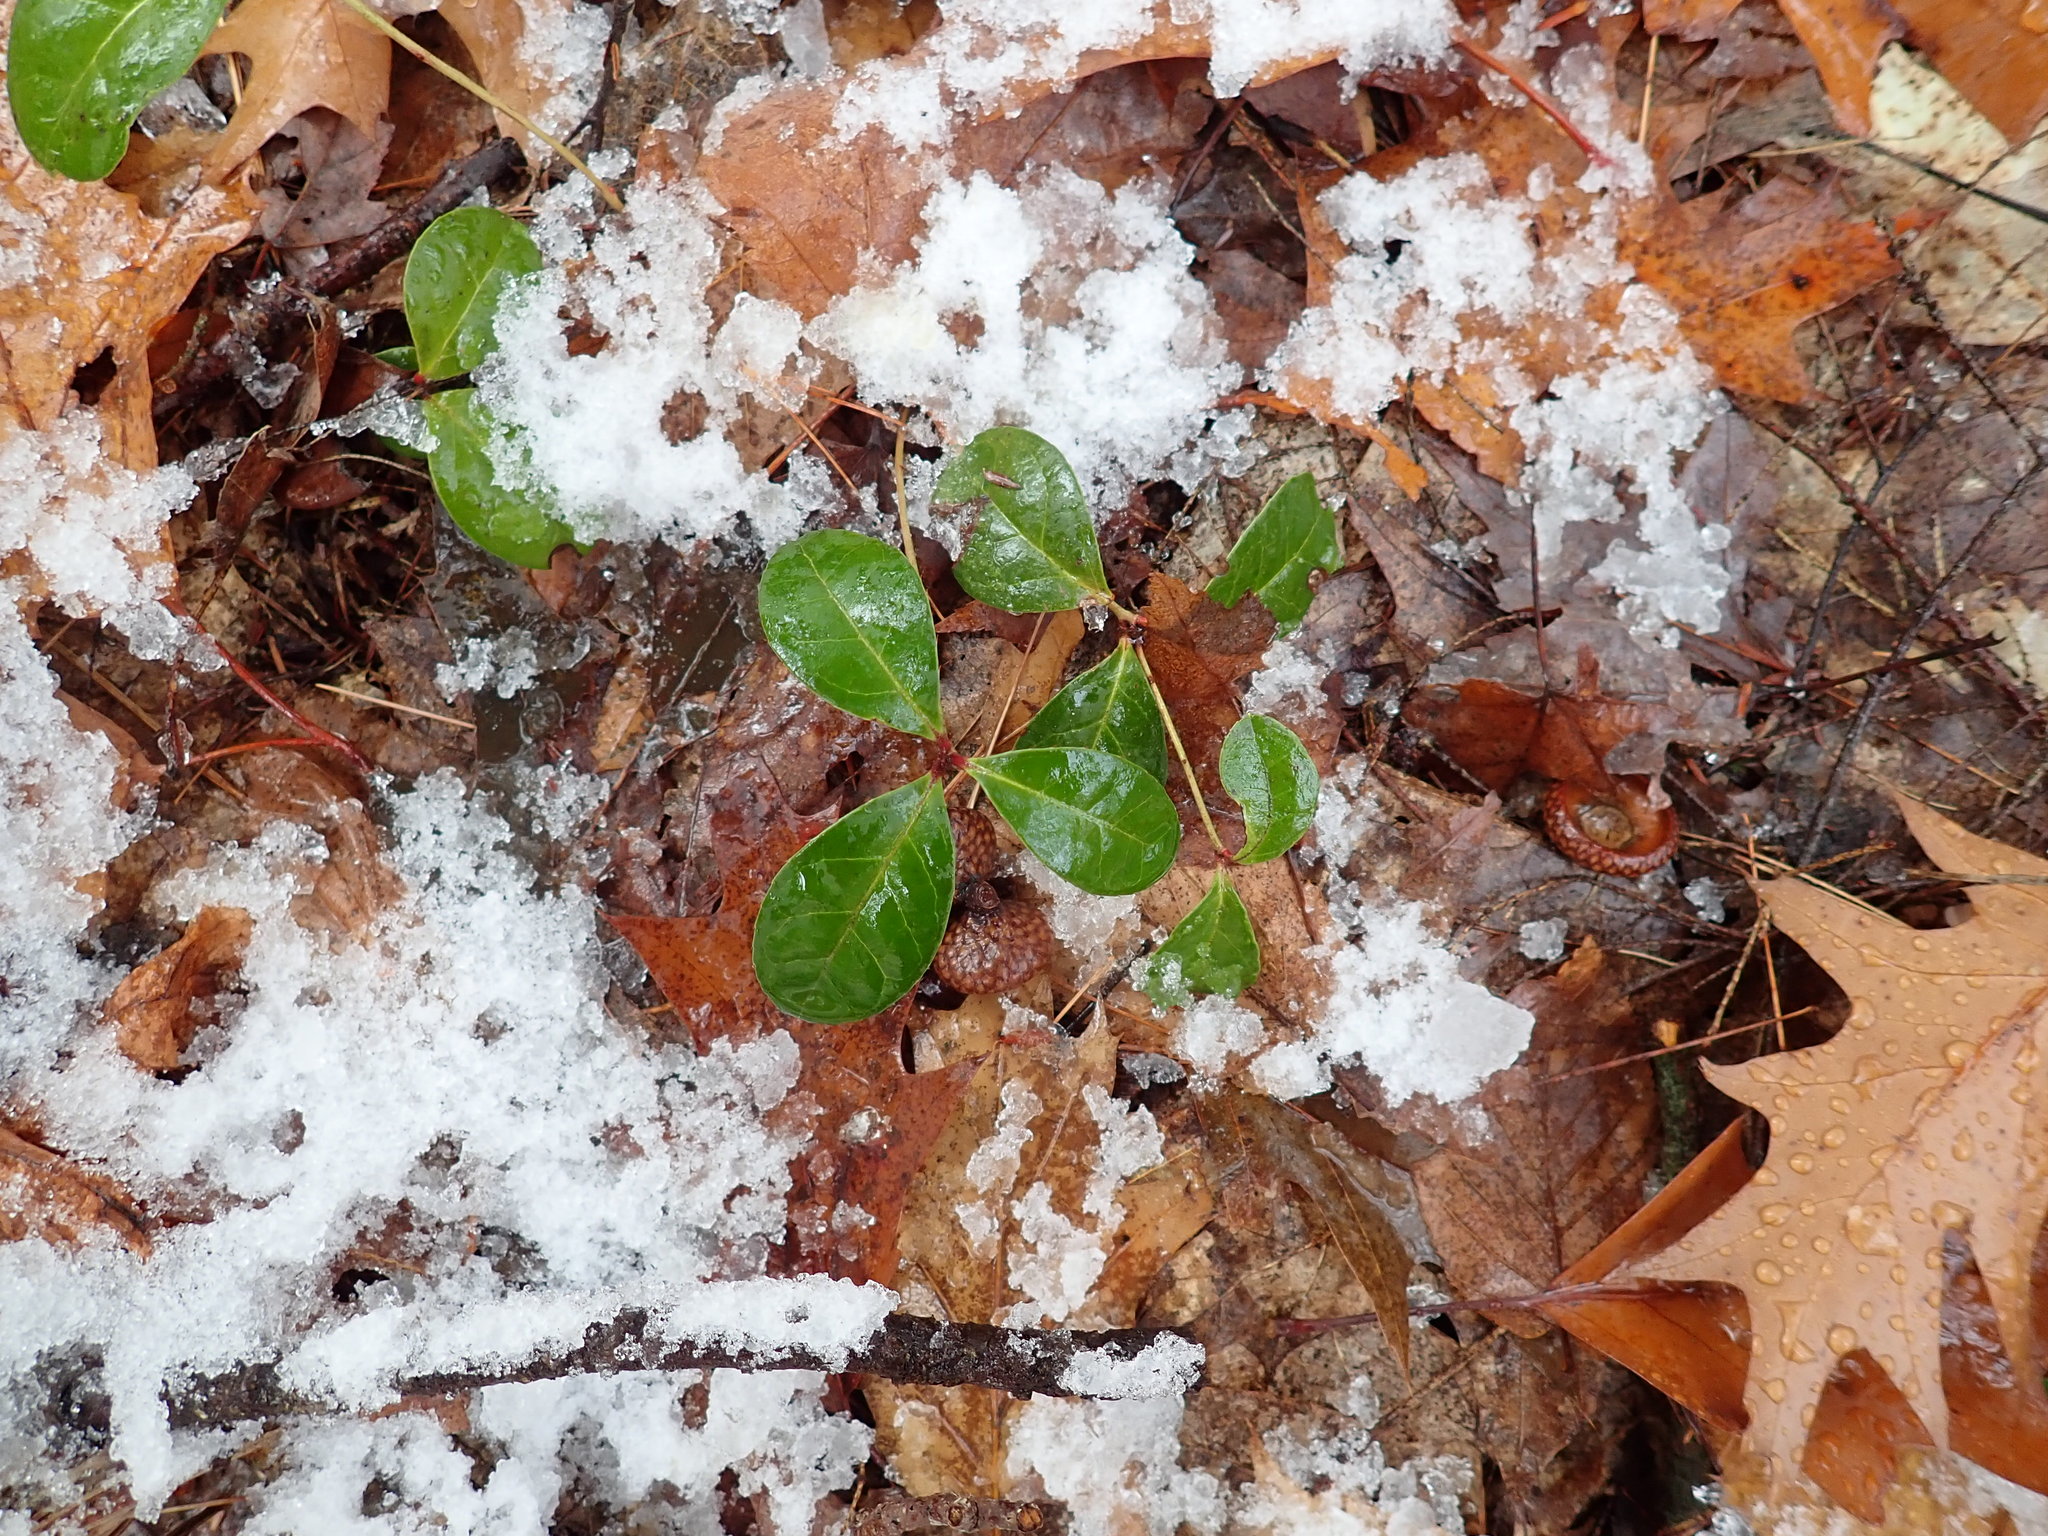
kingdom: Plantae
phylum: Tracheophyta
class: Magnoliopsida
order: Ericales
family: Ericaceae
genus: Gaultheria
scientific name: Gaultheria procumbens
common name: Checkerberry
